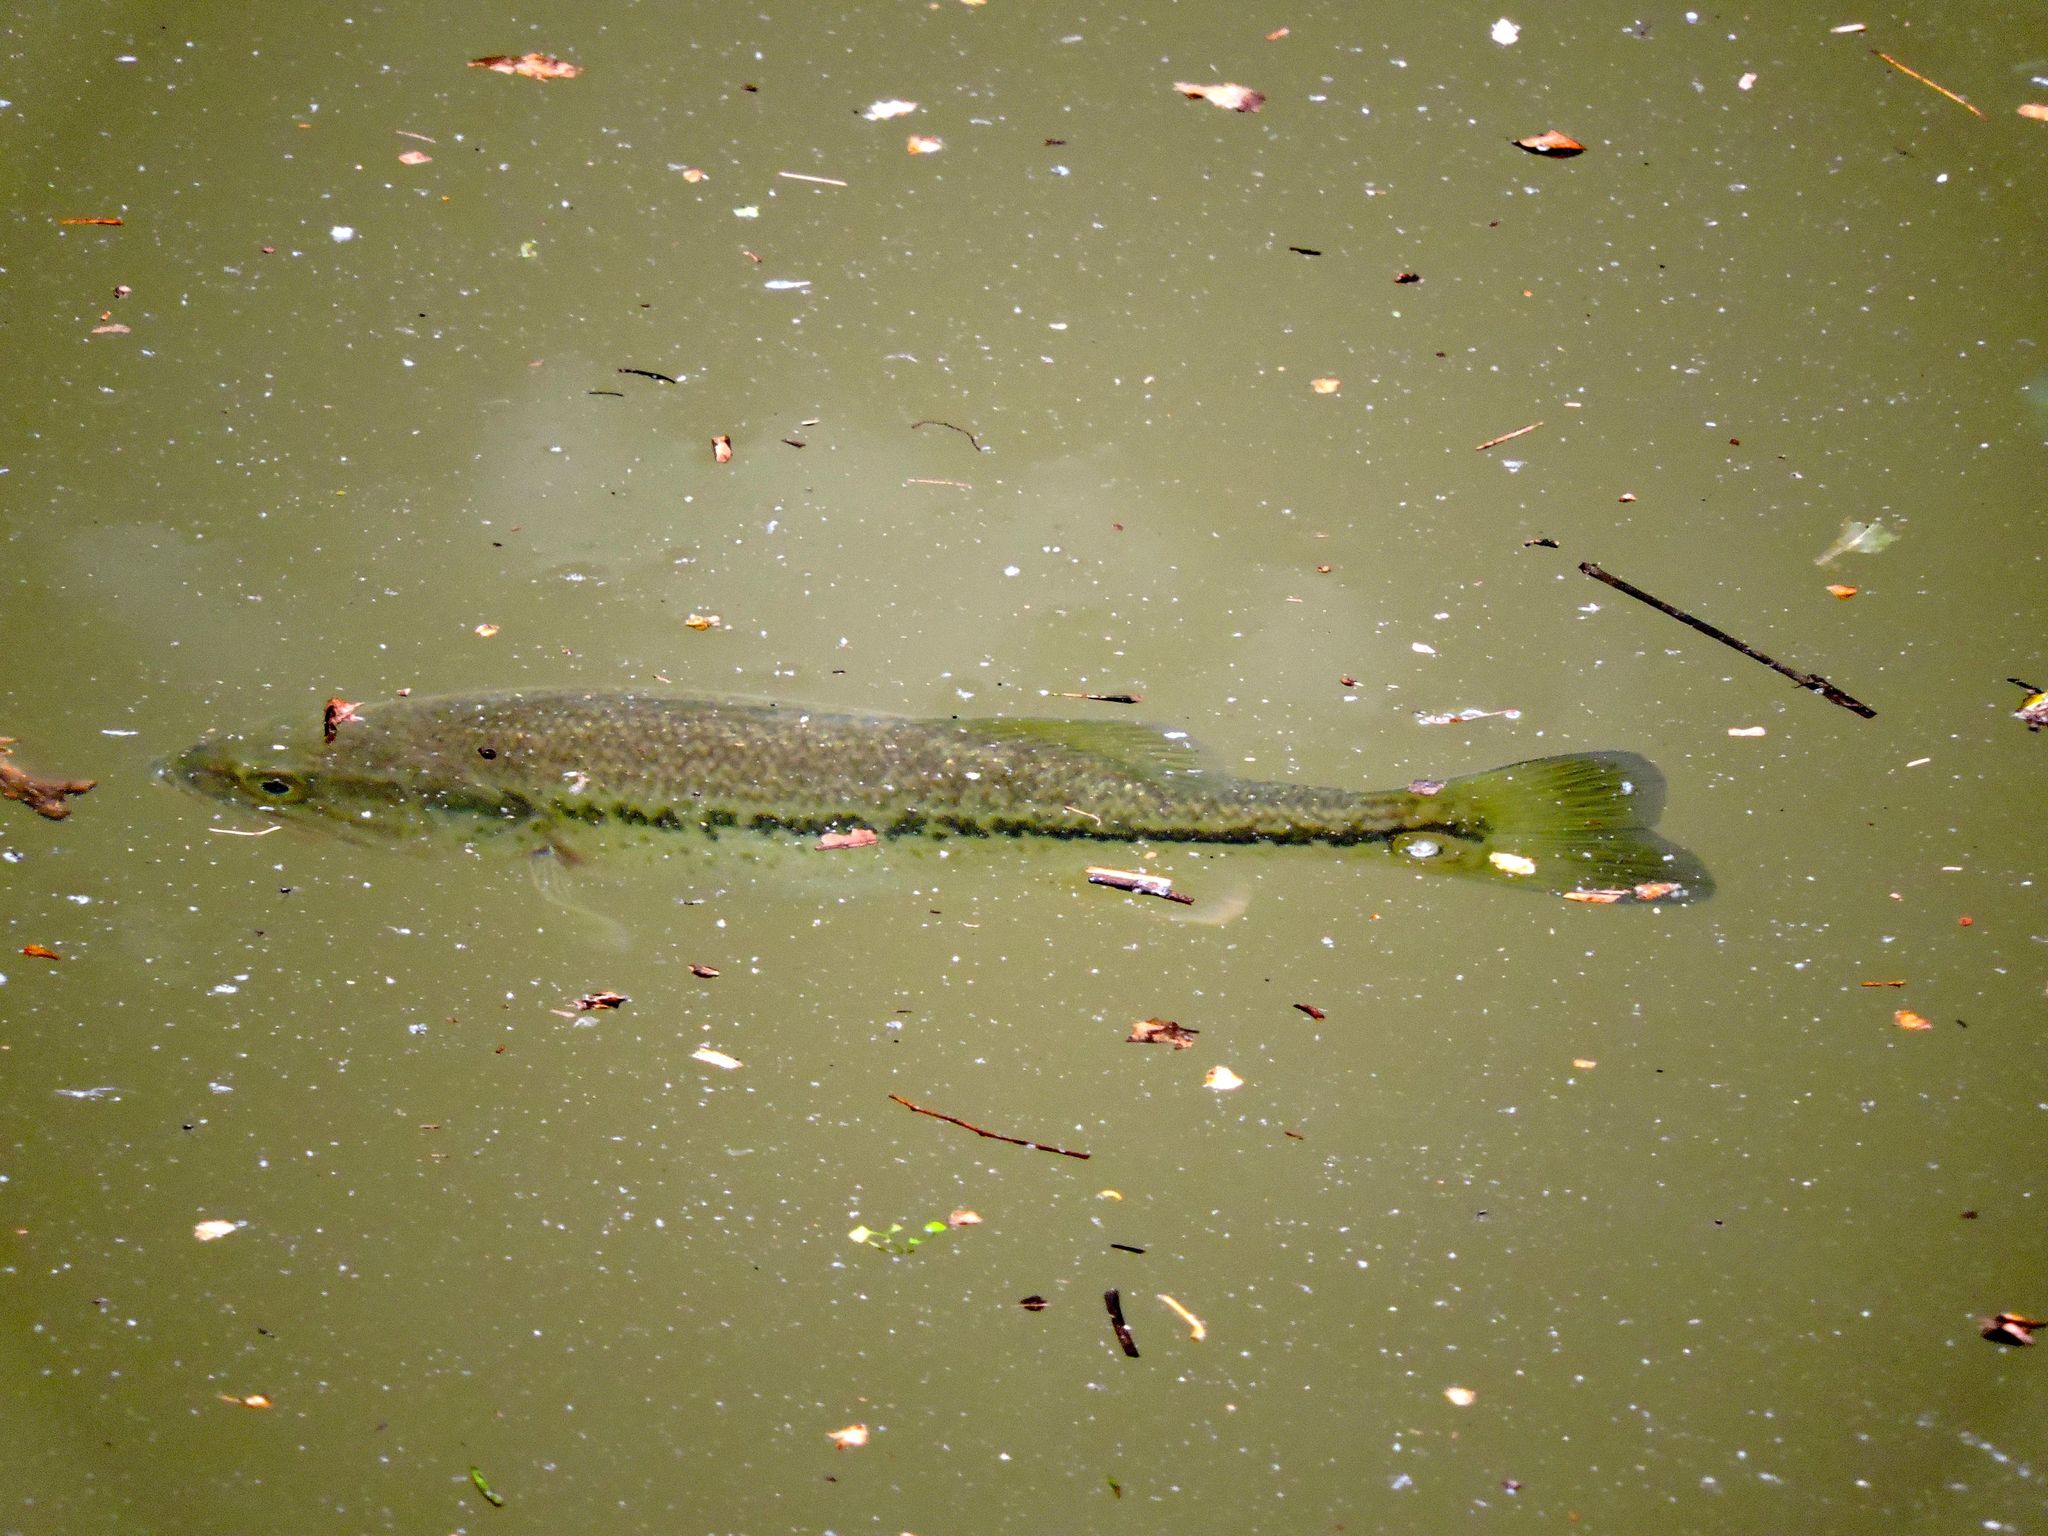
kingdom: Animalia
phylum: Chordata
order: Perciformes
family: Centrarchidae
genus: Micropterus
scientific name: Micropterus
